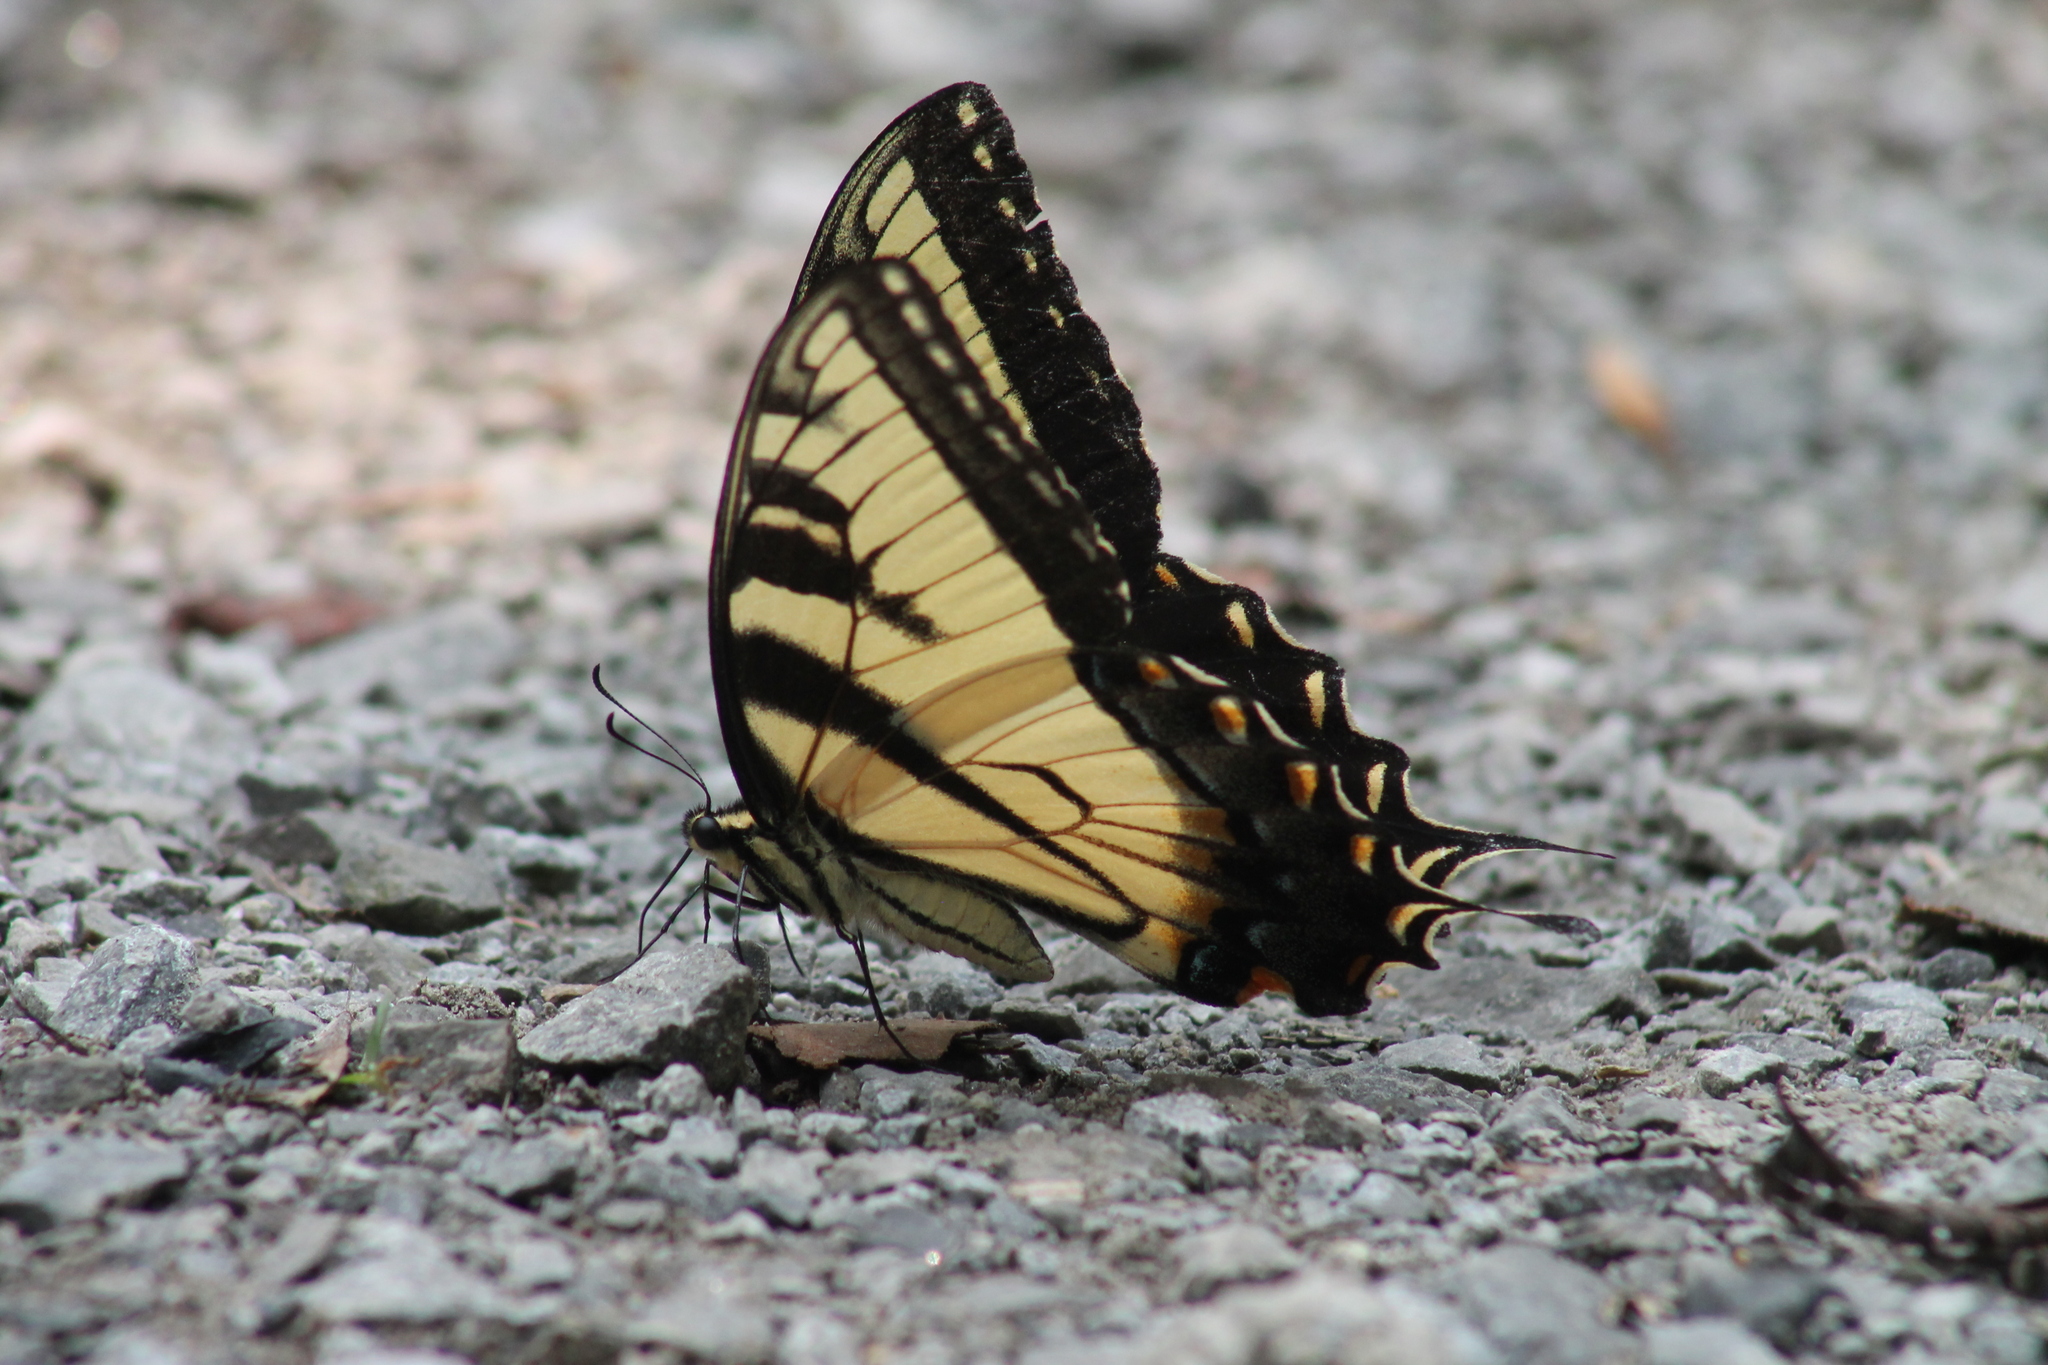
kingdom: Animalia
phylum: Arthropoda
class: Insecta
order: Lepidoptera
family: Papilionidae
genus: Papilio
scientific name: Papilio glaucus
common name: Tiger swallowtail
